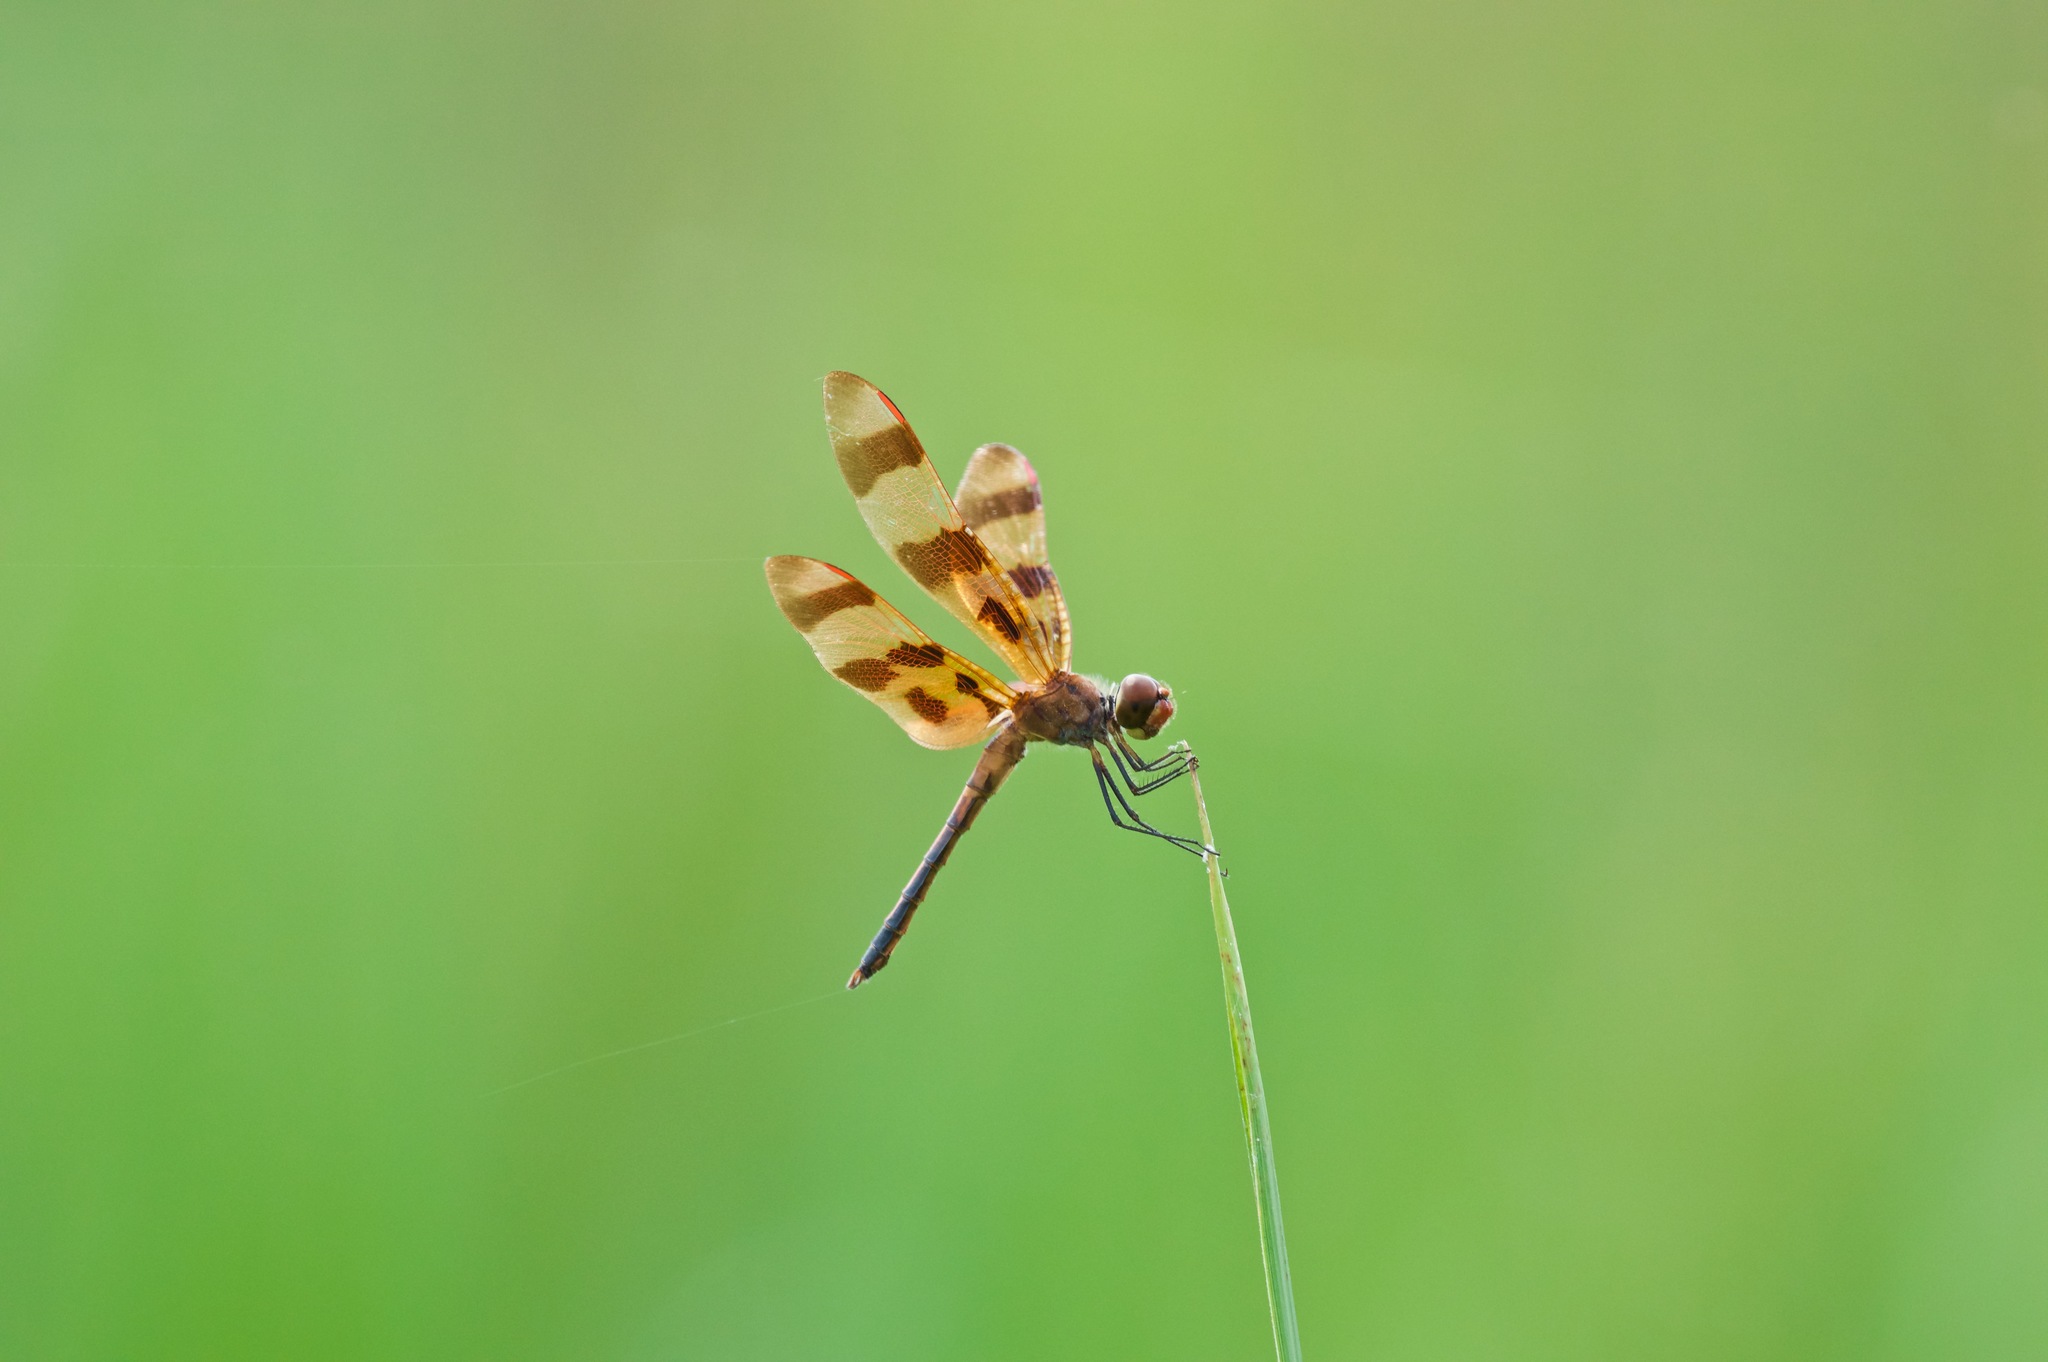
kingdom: Animalia
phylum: Arthropoda
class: Insecta
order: Odonata
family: Libellulidae
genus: Celithemis
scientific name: Celithemis eponina
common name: Halloween pennant
